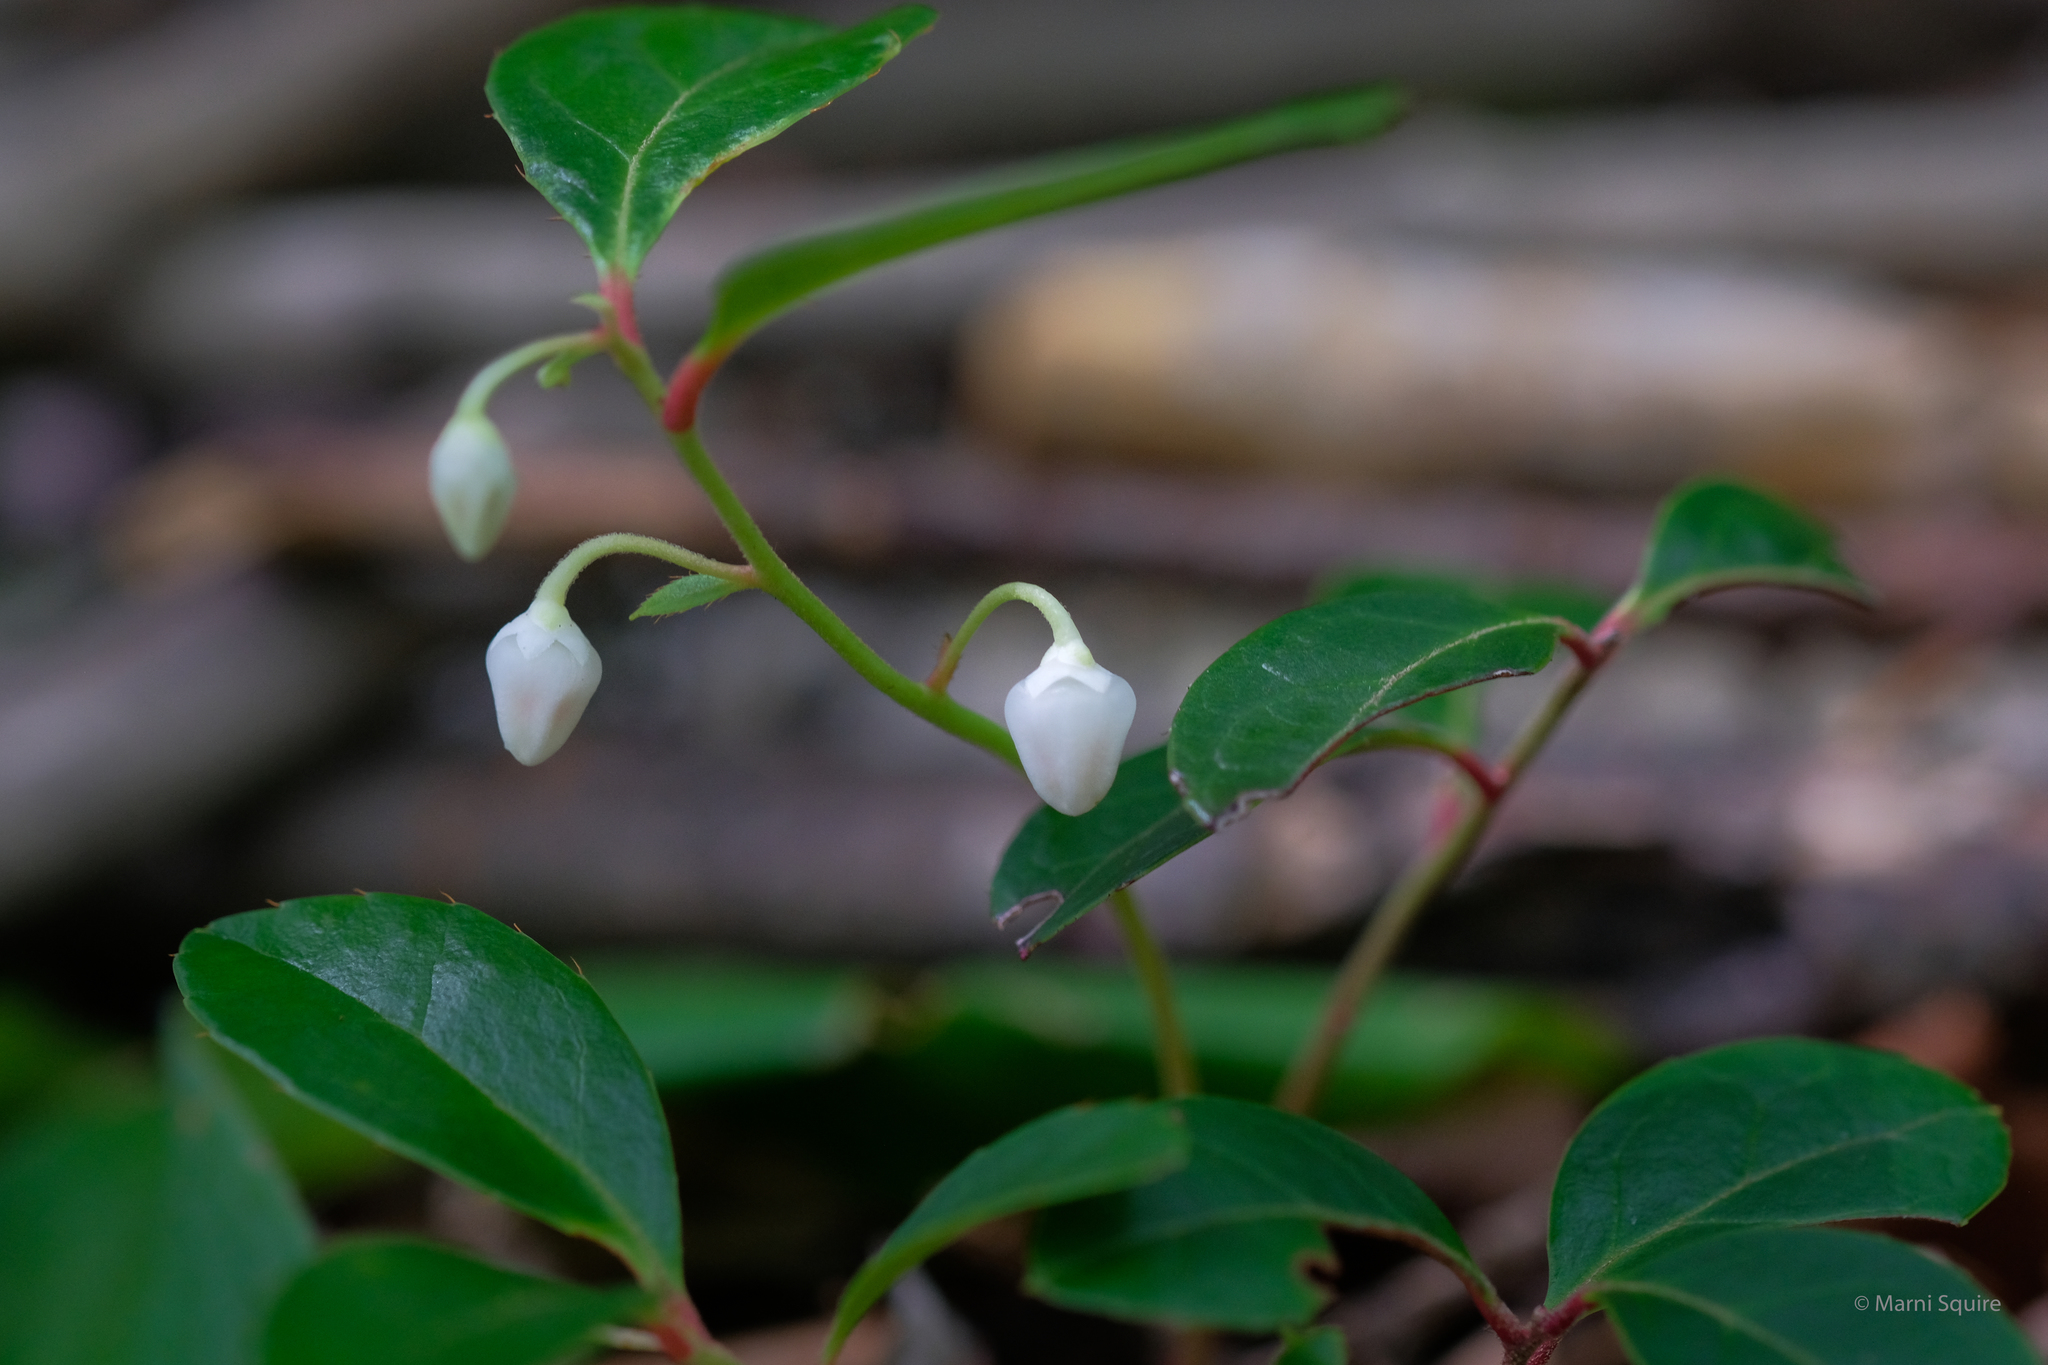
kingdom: Plantae
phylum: Tracheophyta
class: Magnoliopsida
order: Ericales
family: Ericaceae
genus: Gaultheria
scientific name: Gaultheria procumbens
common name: Checkerberry
